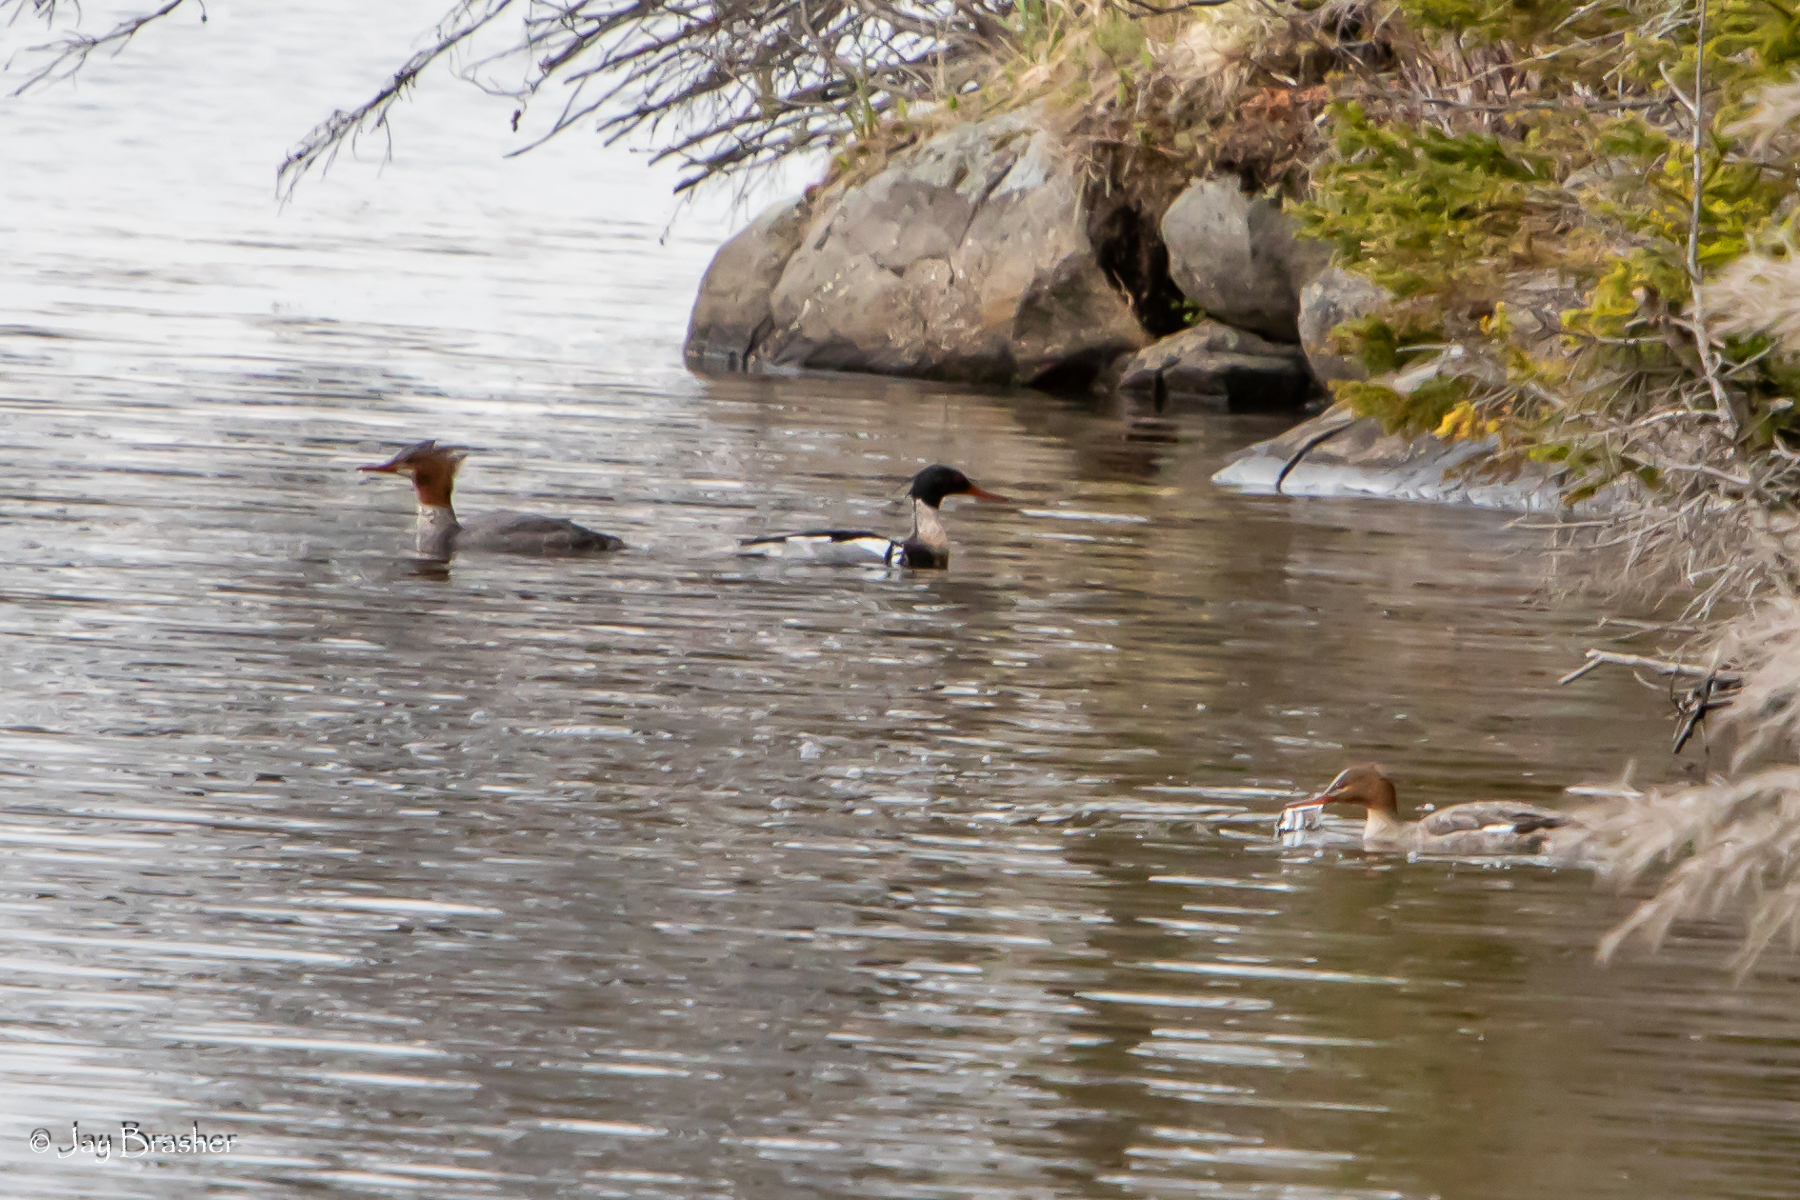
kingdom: Animalia
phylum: Chordata
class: Aves
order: Anseriformes
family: Anatidae
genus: Mergus
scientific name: Mergus serrator
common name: Red-breasted merganser
